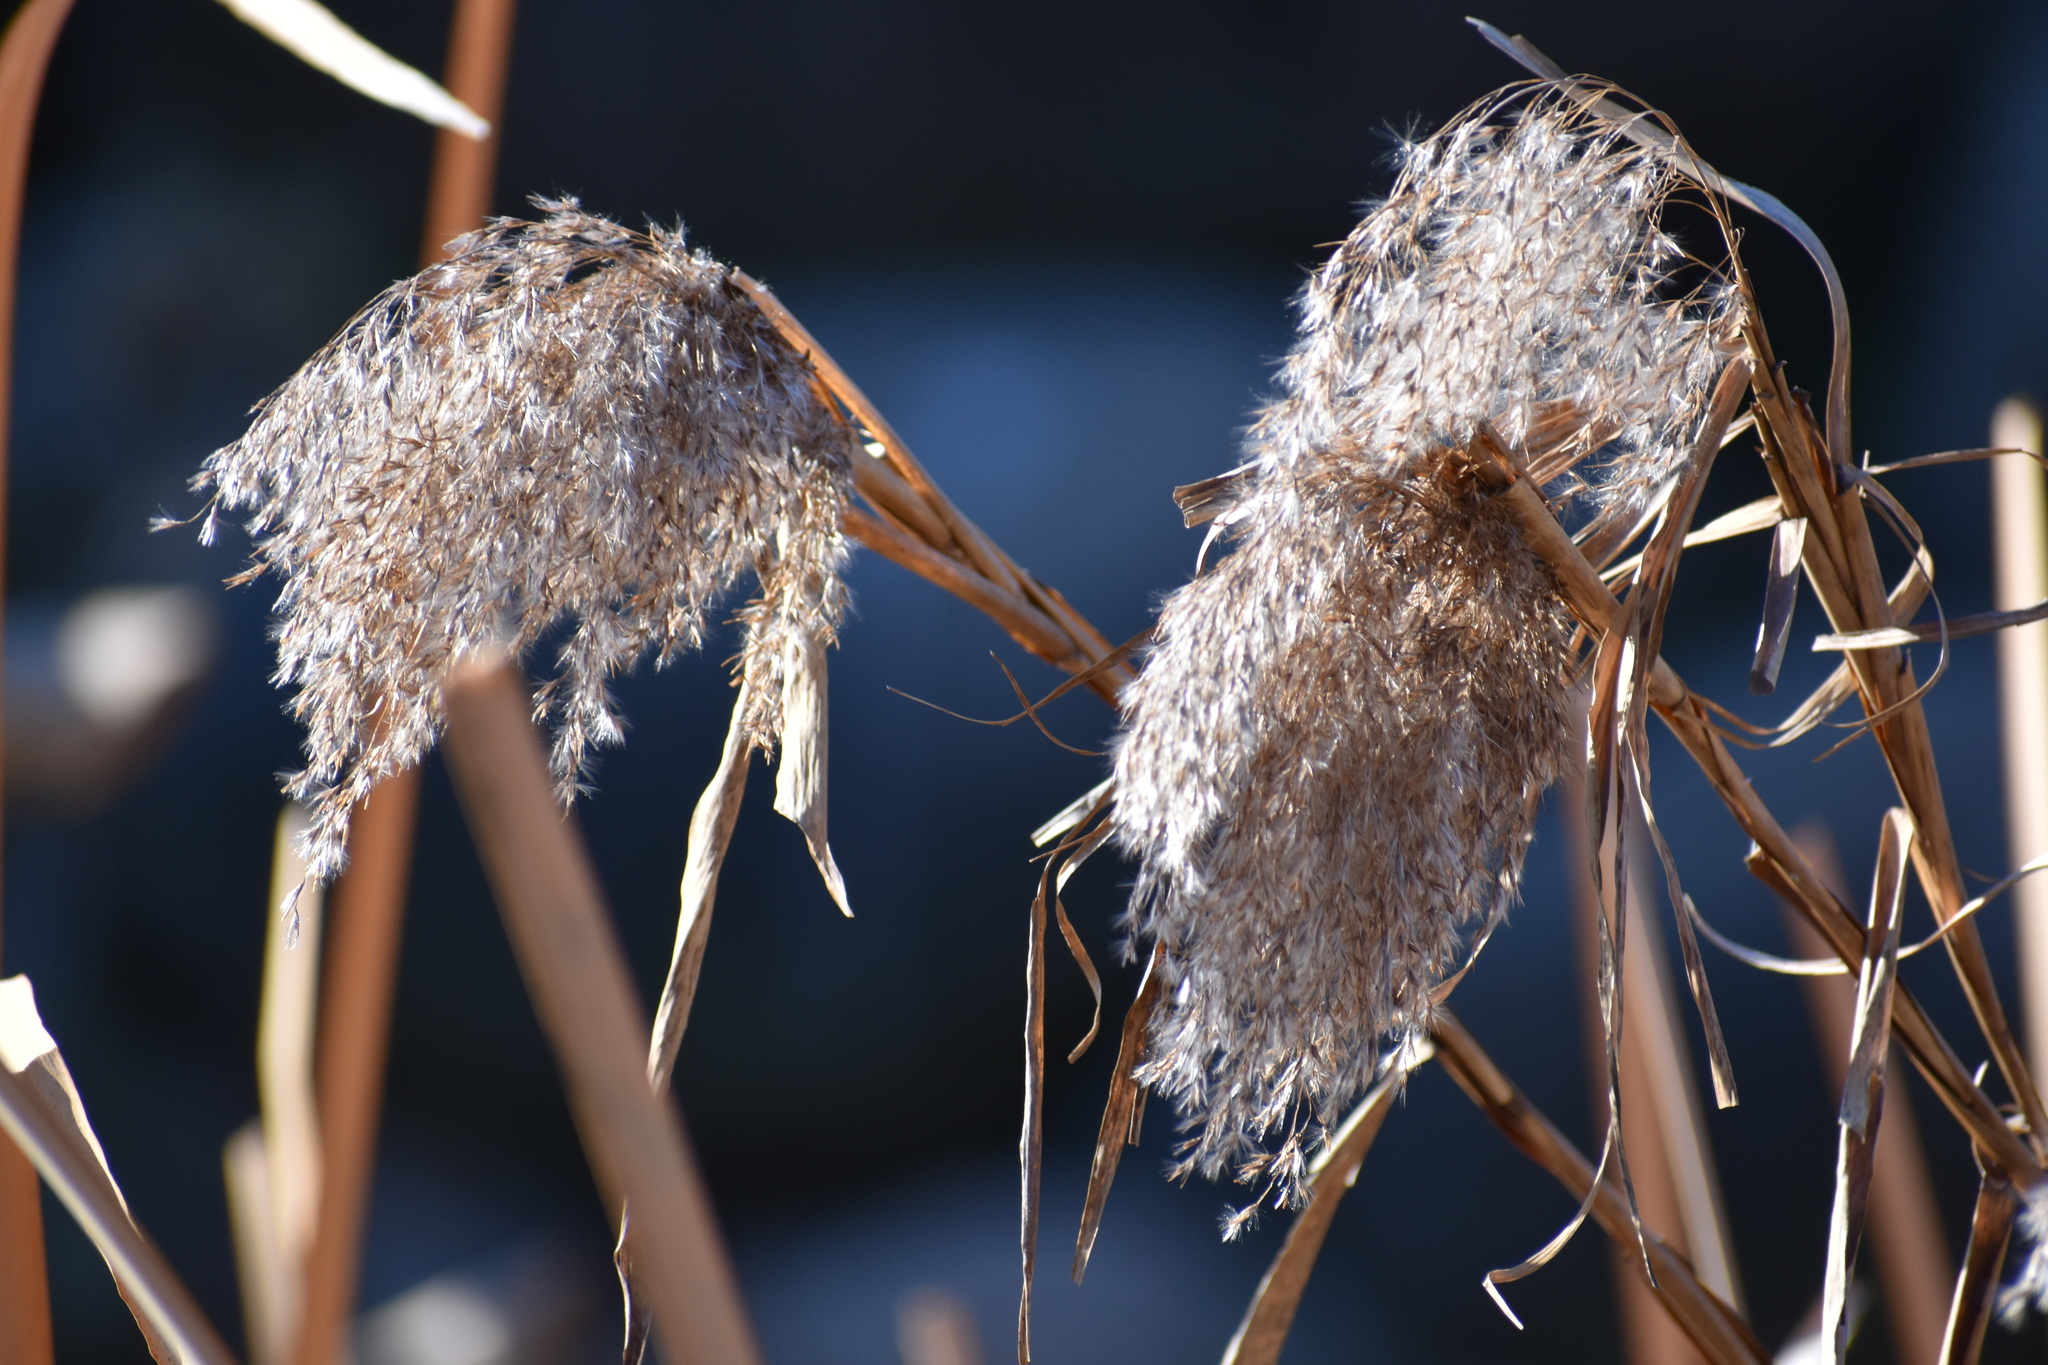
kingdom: Plantae
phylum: Tracheophyta
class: Liliopsida
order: Poales
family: Poaceae
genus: Phragmites
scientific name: Phragmites australis
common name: Common reed
